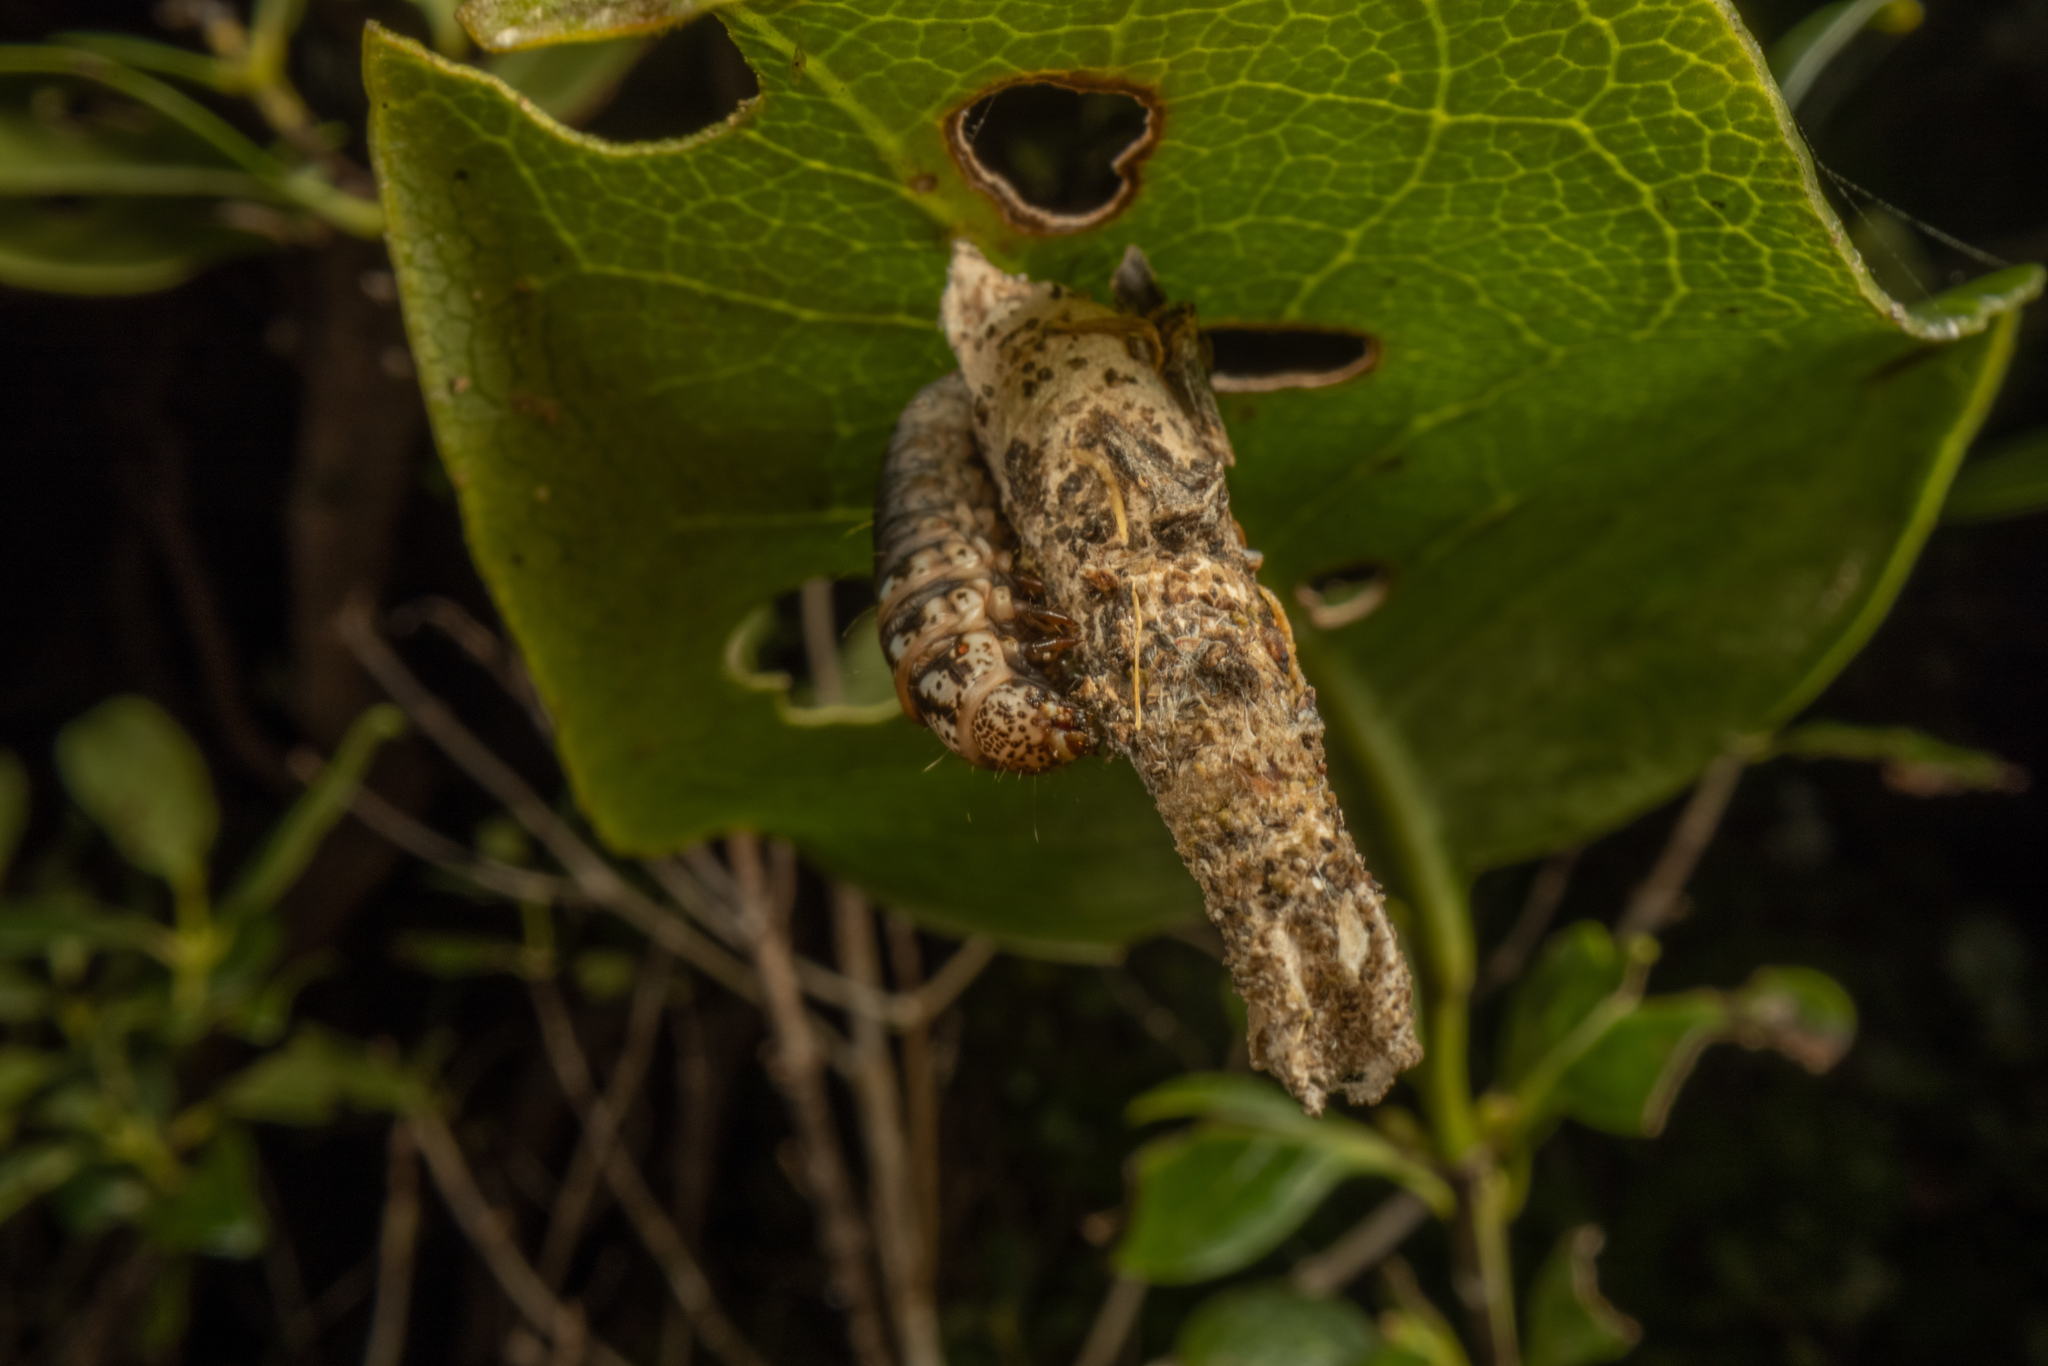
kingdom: Animalia
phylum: Arthropoda
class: Insecta
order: Lepidoptera
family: Psychidae
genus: Liothula
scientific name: Liothula omnivora
